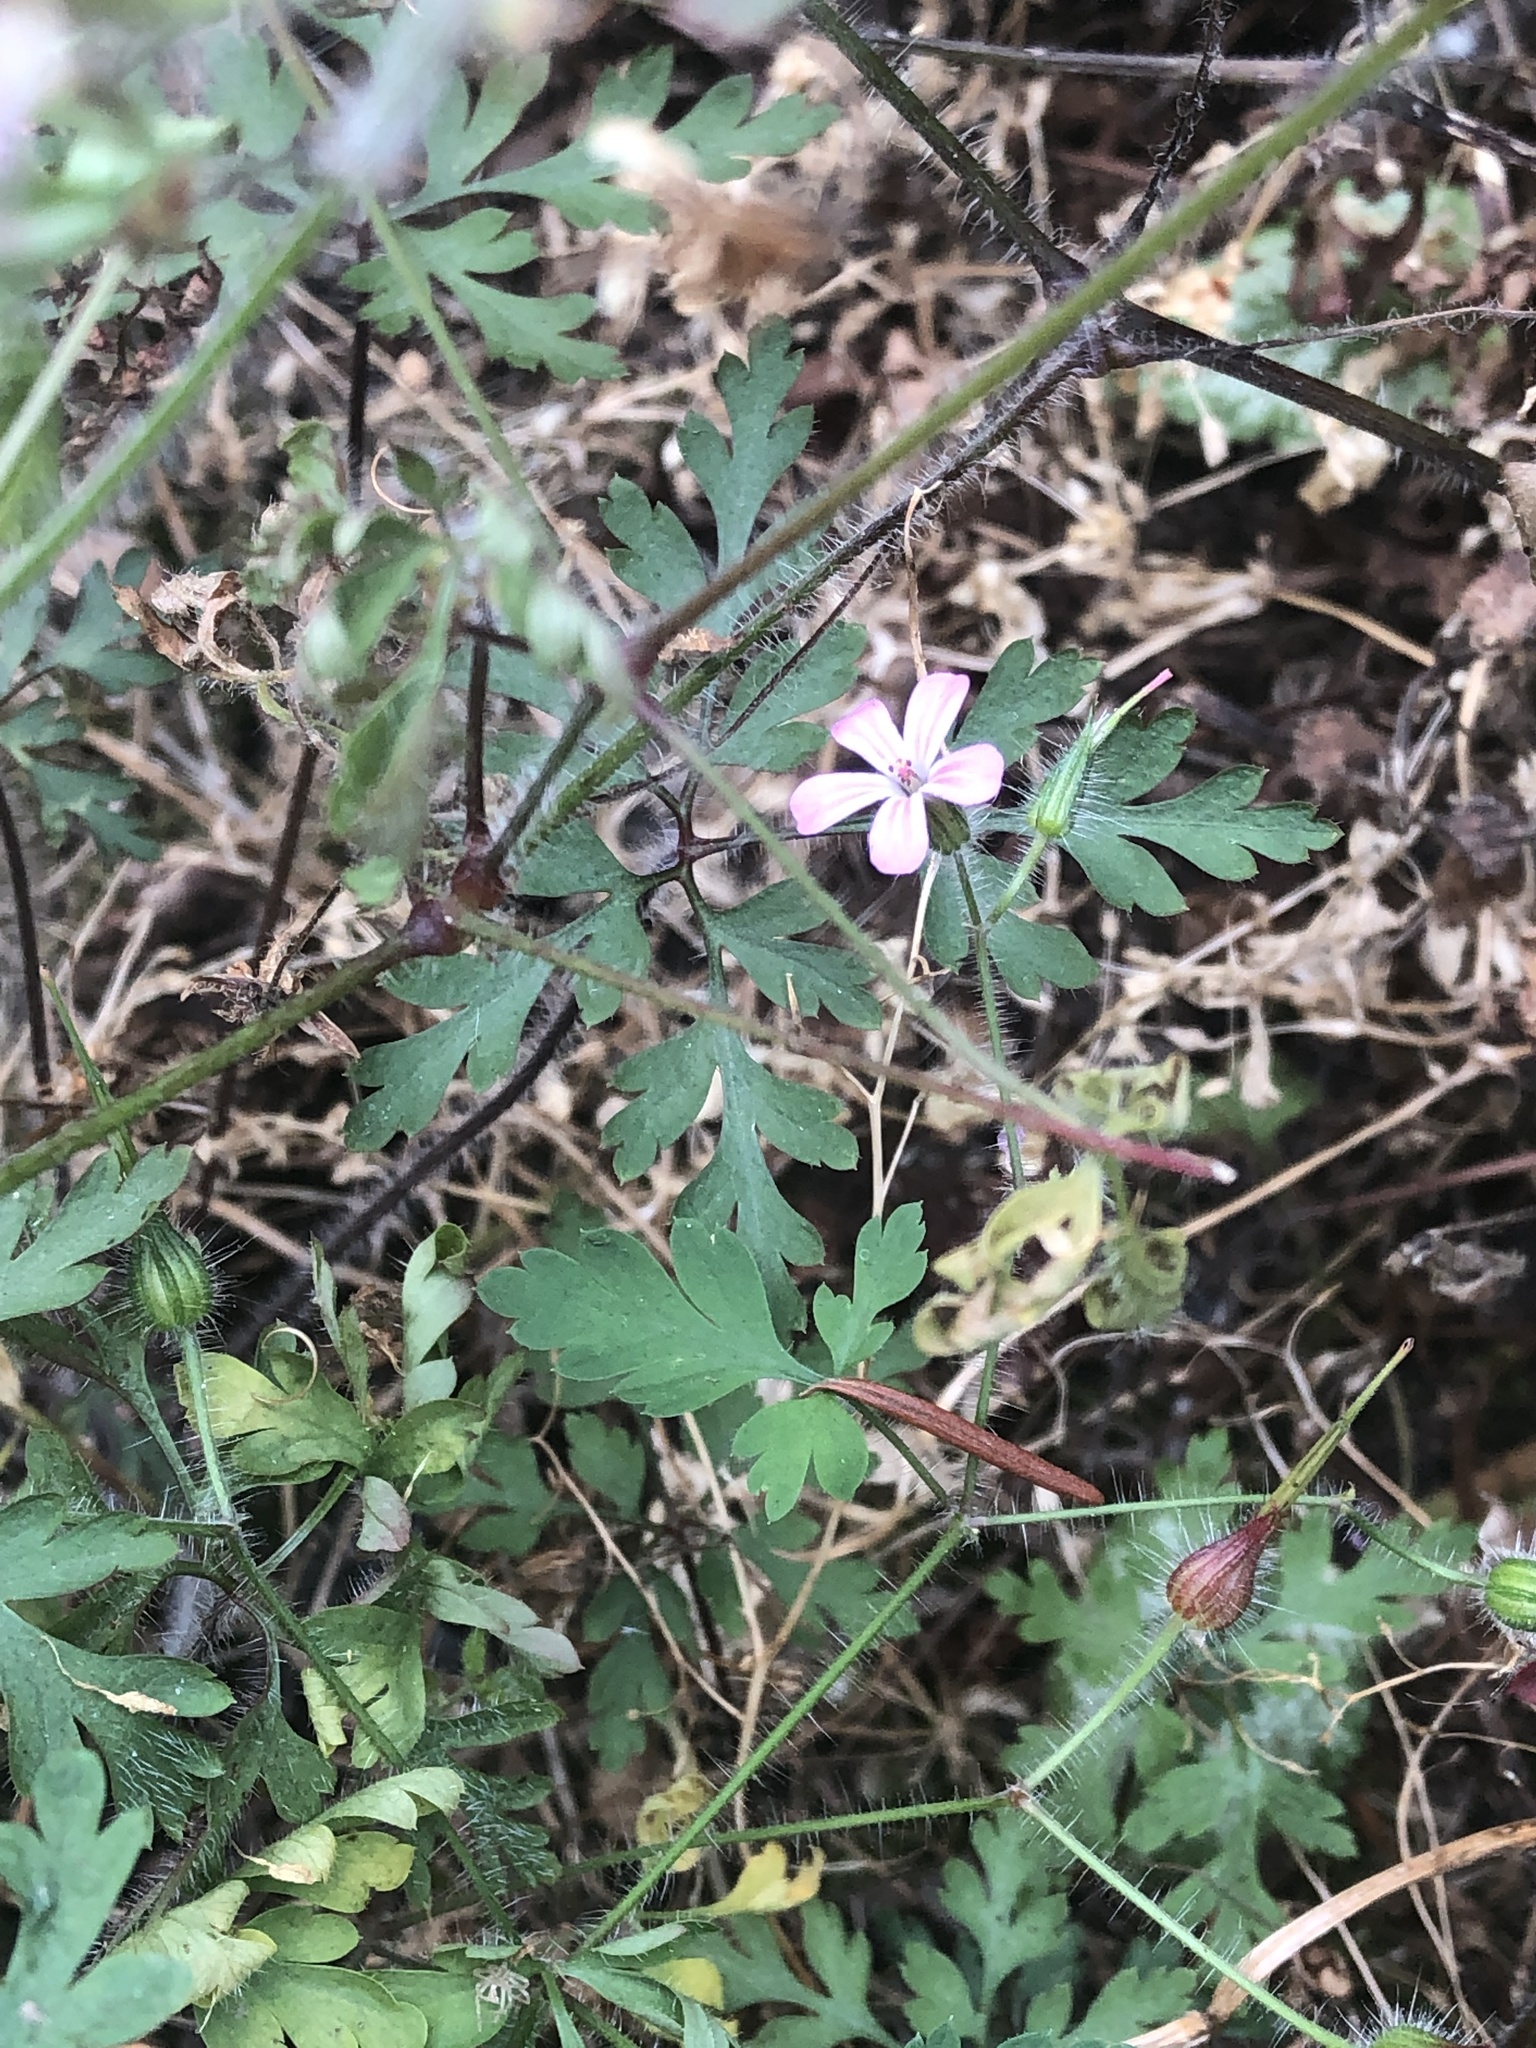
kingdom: Plantae
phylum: Tracheophyta
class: Magnoliopsida
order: Geraniales
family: Geraniaceae
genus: Geranium
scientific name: Geranium robertianum
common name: Herb-robert
